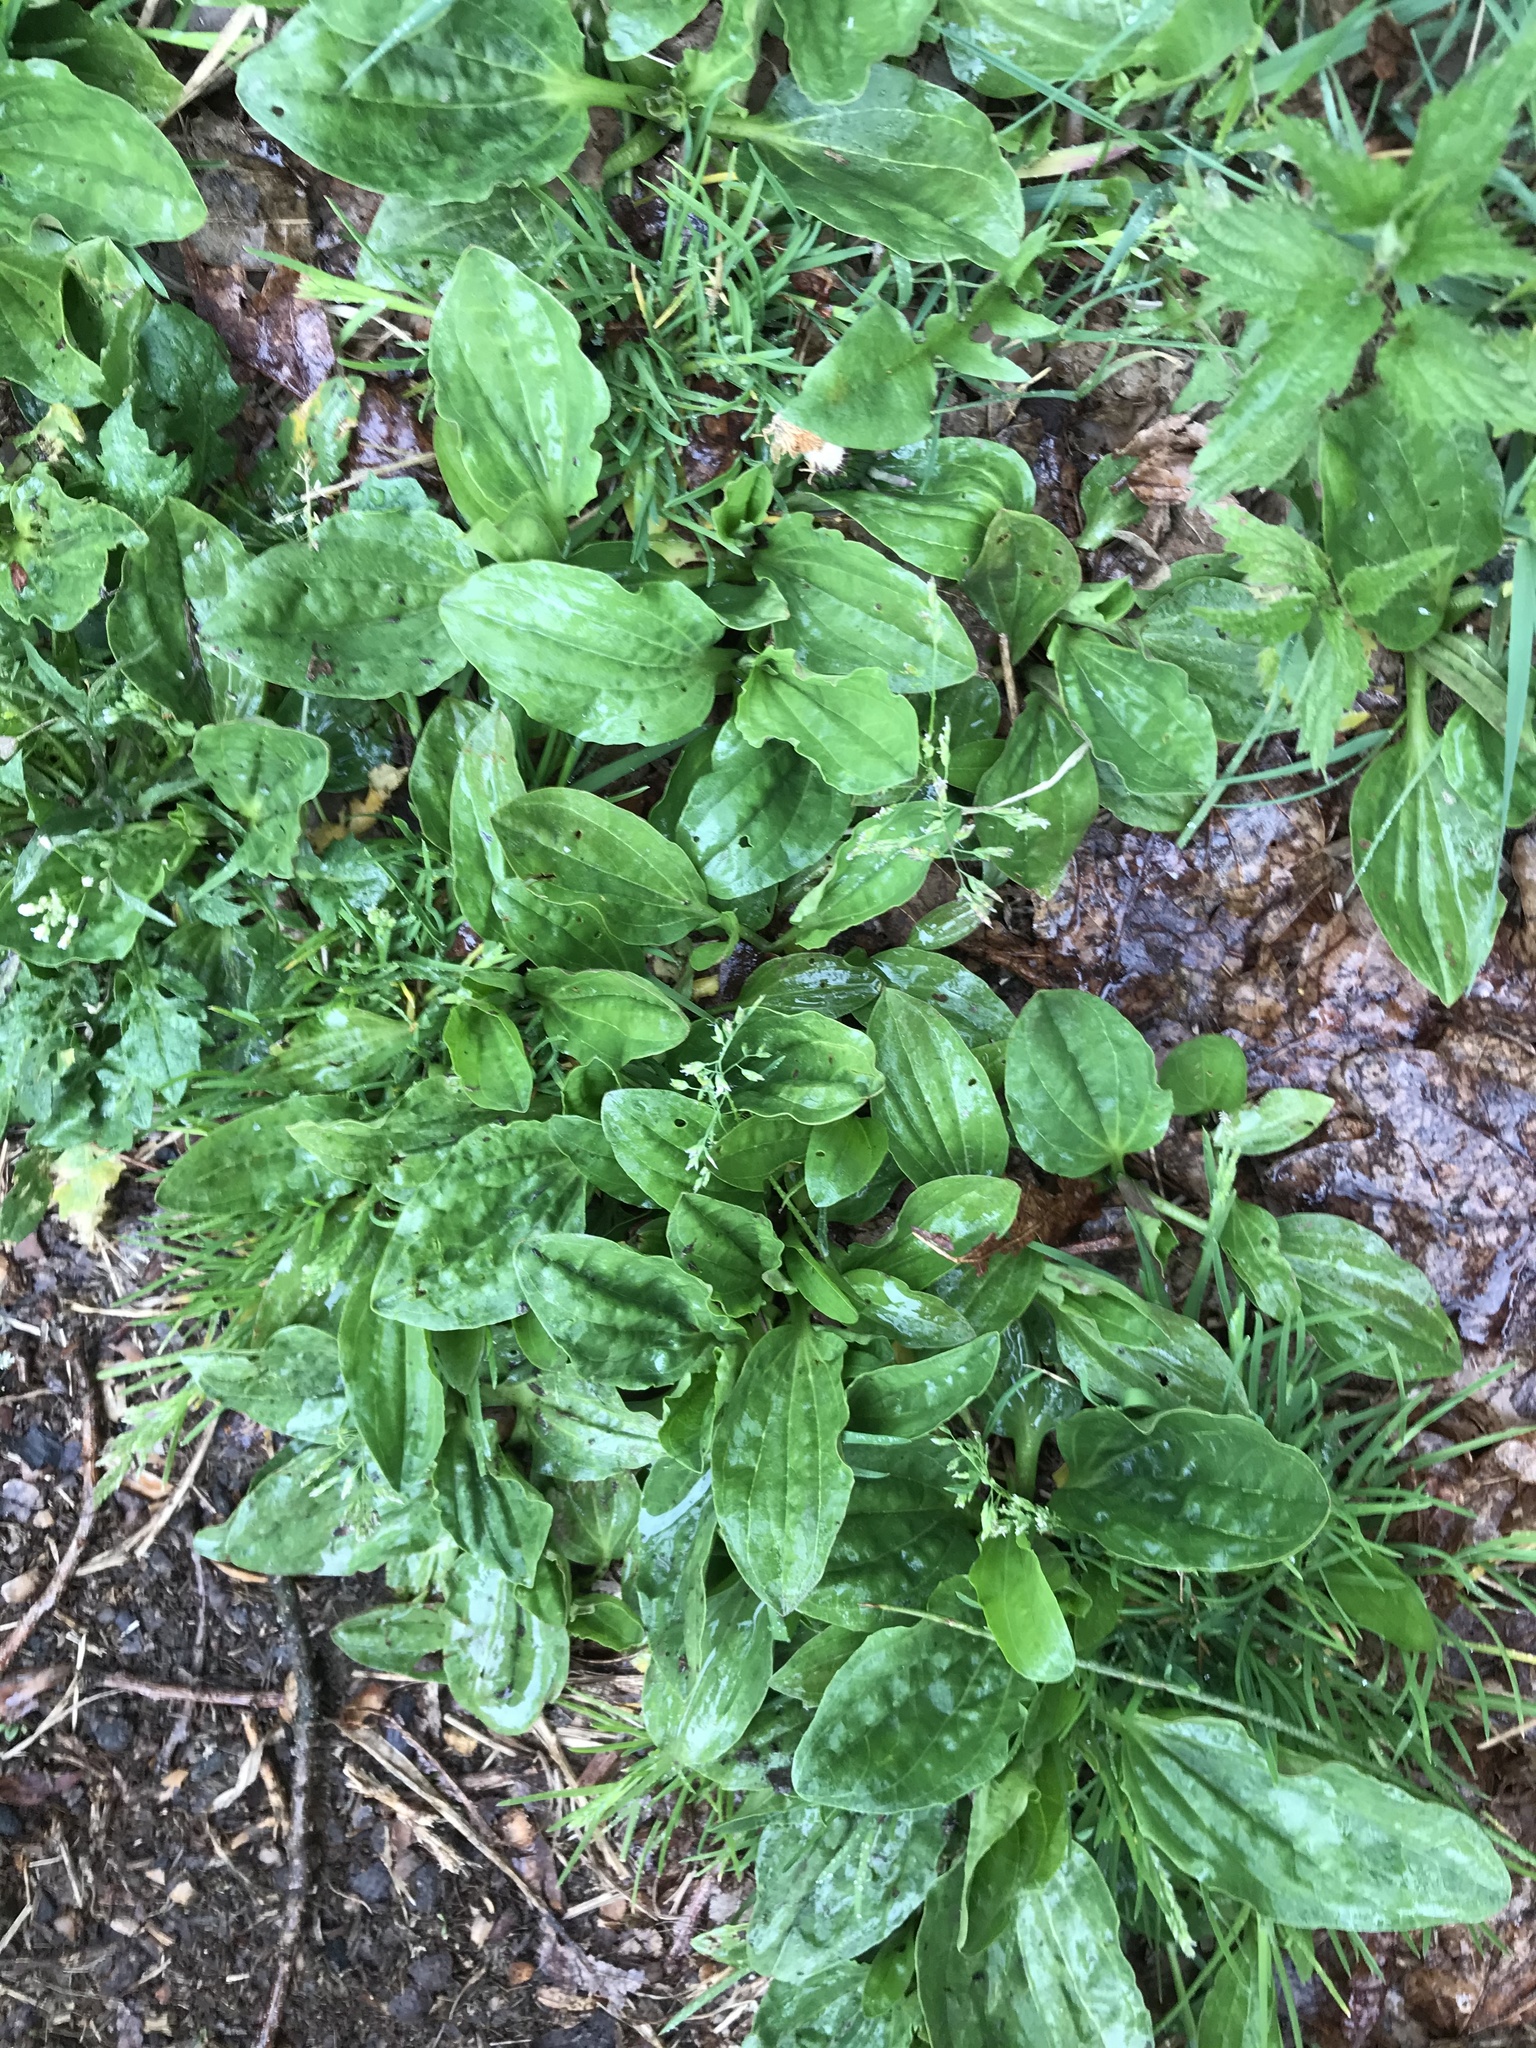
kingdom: Plantae
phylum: Tracheophyta
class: Magnoliopsida
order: Lamiales
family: Plantaginaceae
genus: Plantago
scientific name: Plantago major
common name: Common plantain
